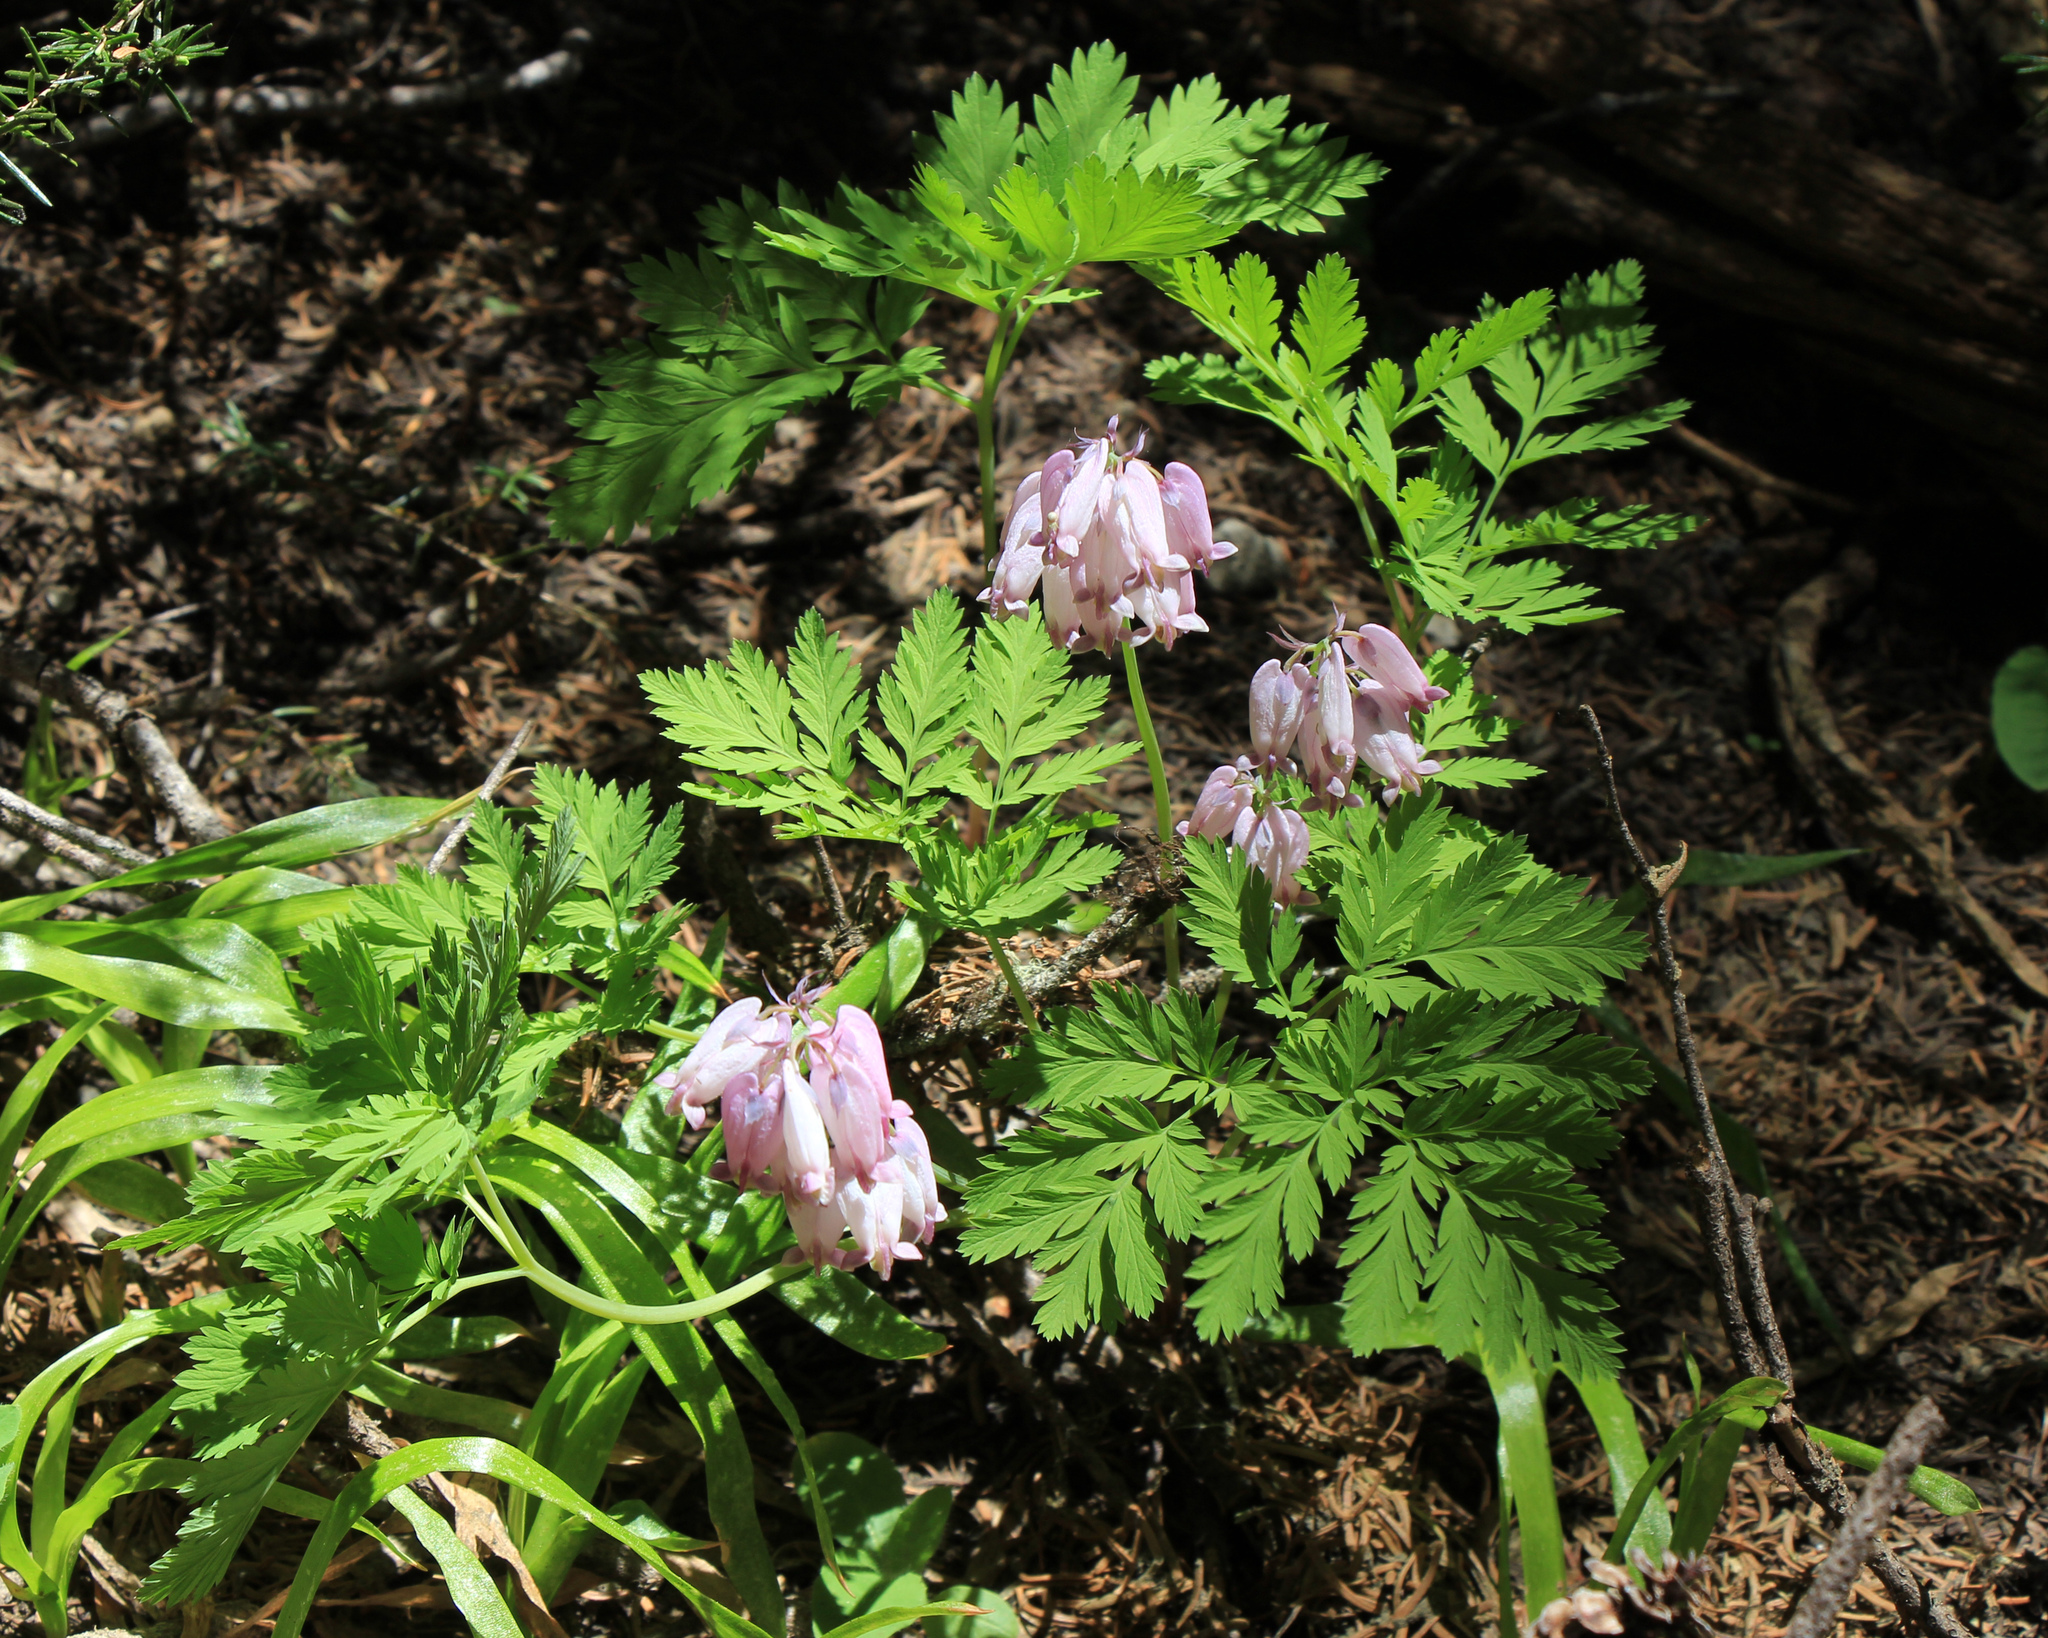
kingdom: Plantae
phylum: Tracheophyta
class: Magnoliopsida
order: Ranunculales
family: Papaveraceae
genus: Dicentra
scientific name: Dicentra formosa
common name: Bleeding-heart
